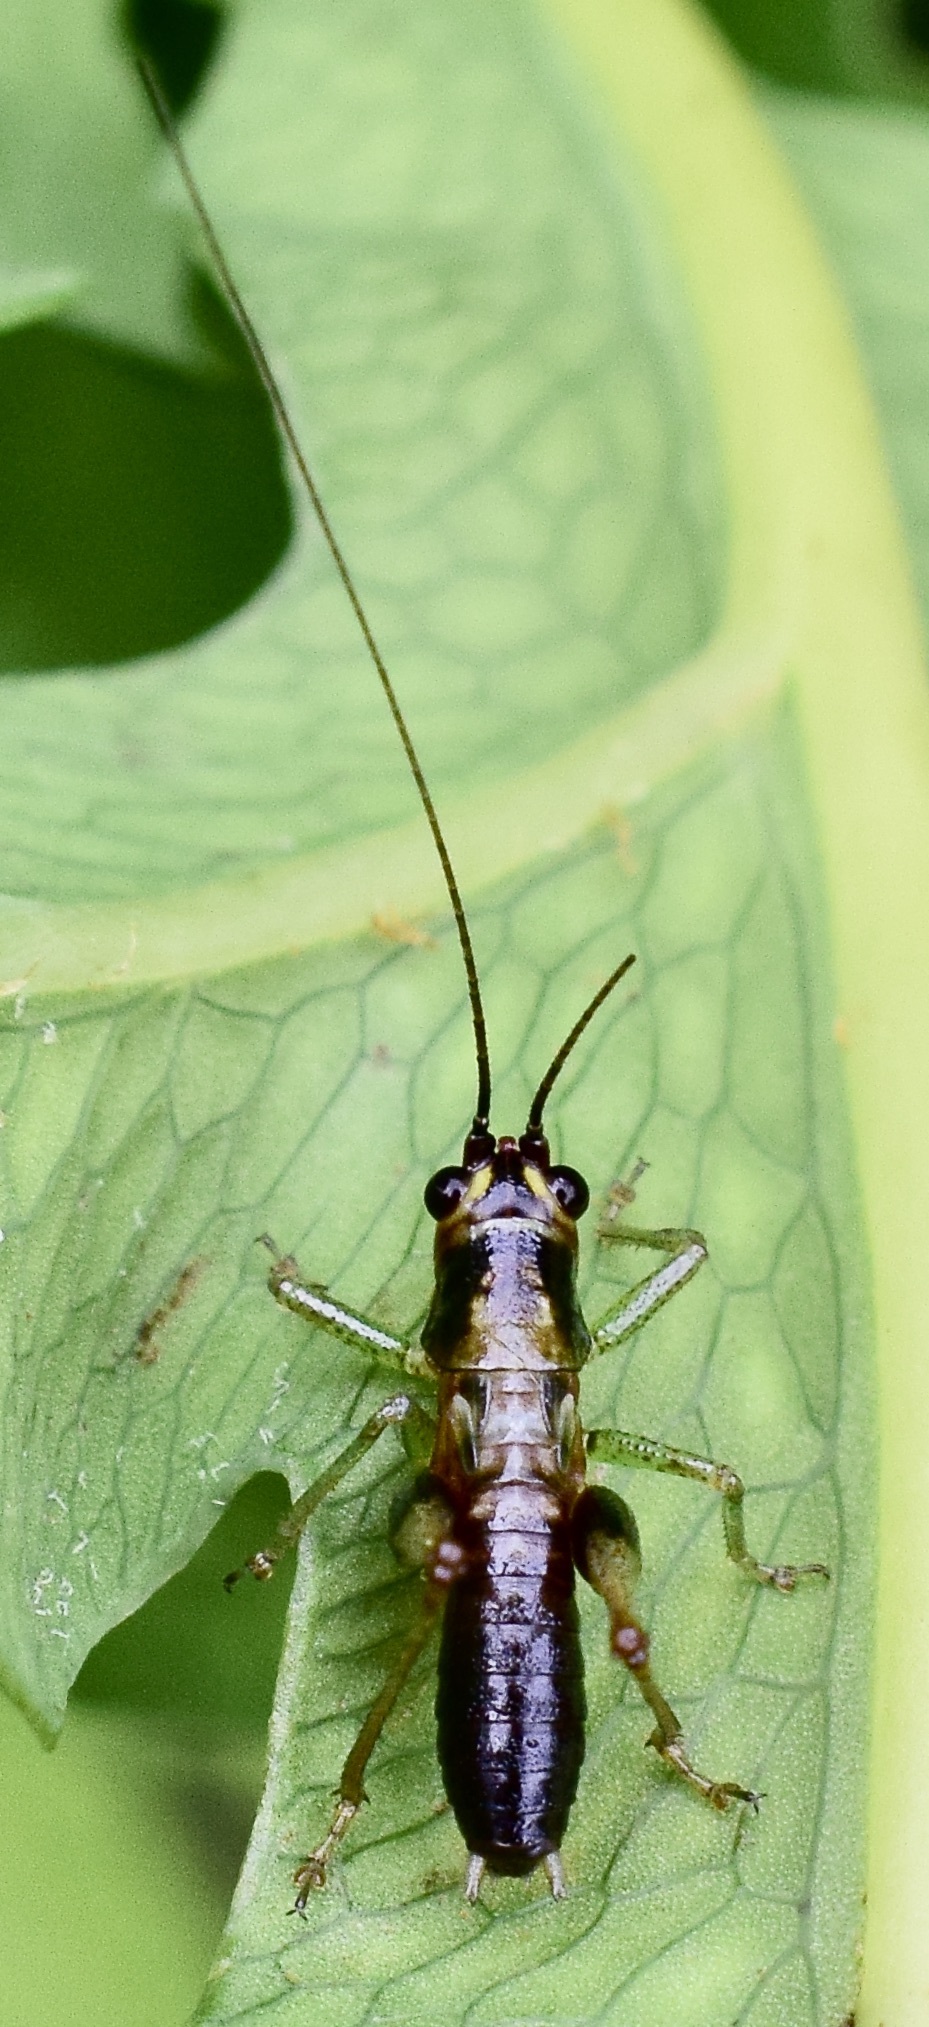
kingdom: Animalia
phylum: Arthropoda
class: Insecta
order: Orthoptera
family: Tettigoniidae
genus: Conocephalus
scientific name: Conocephalus nigropleurum
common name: Black-sided meadow katydid
